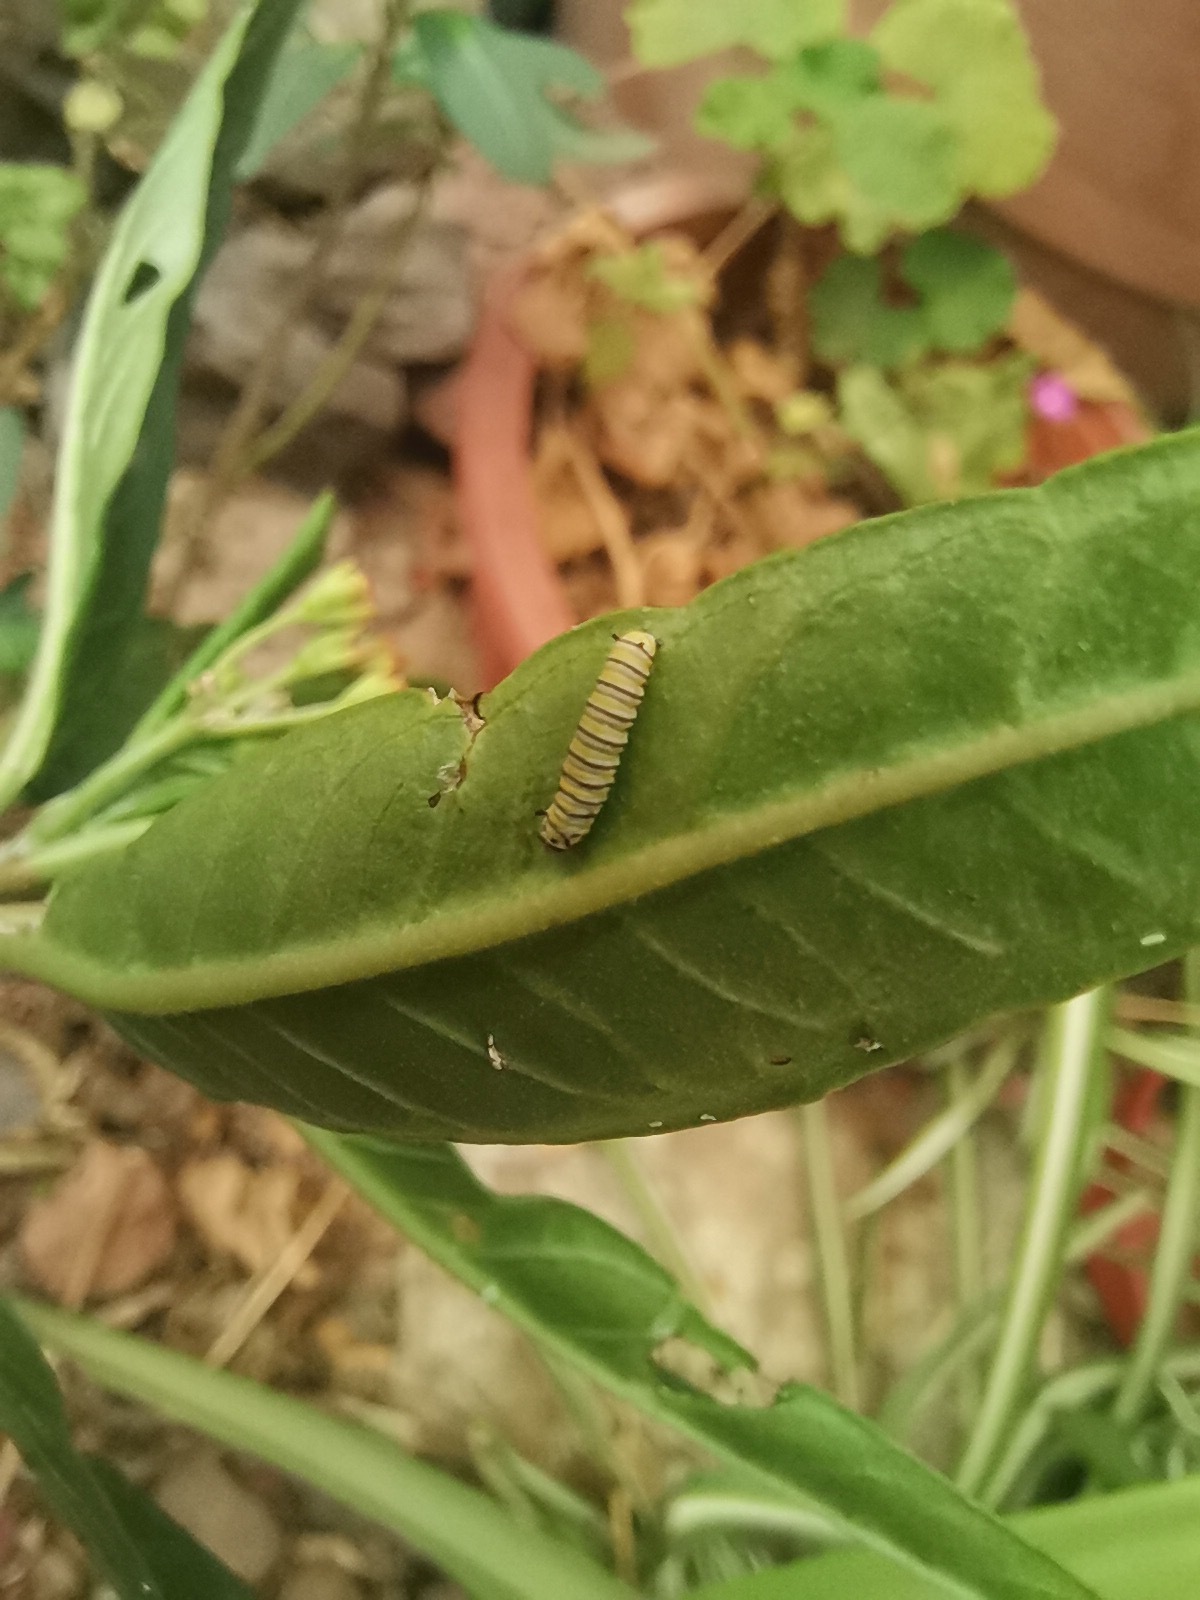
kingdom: Animalia
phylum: Arthropoda
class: Insecta
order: Lepidoptera
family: Nymphalidae
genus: Danaus
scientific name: Danaus plexippus
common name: Monarch
